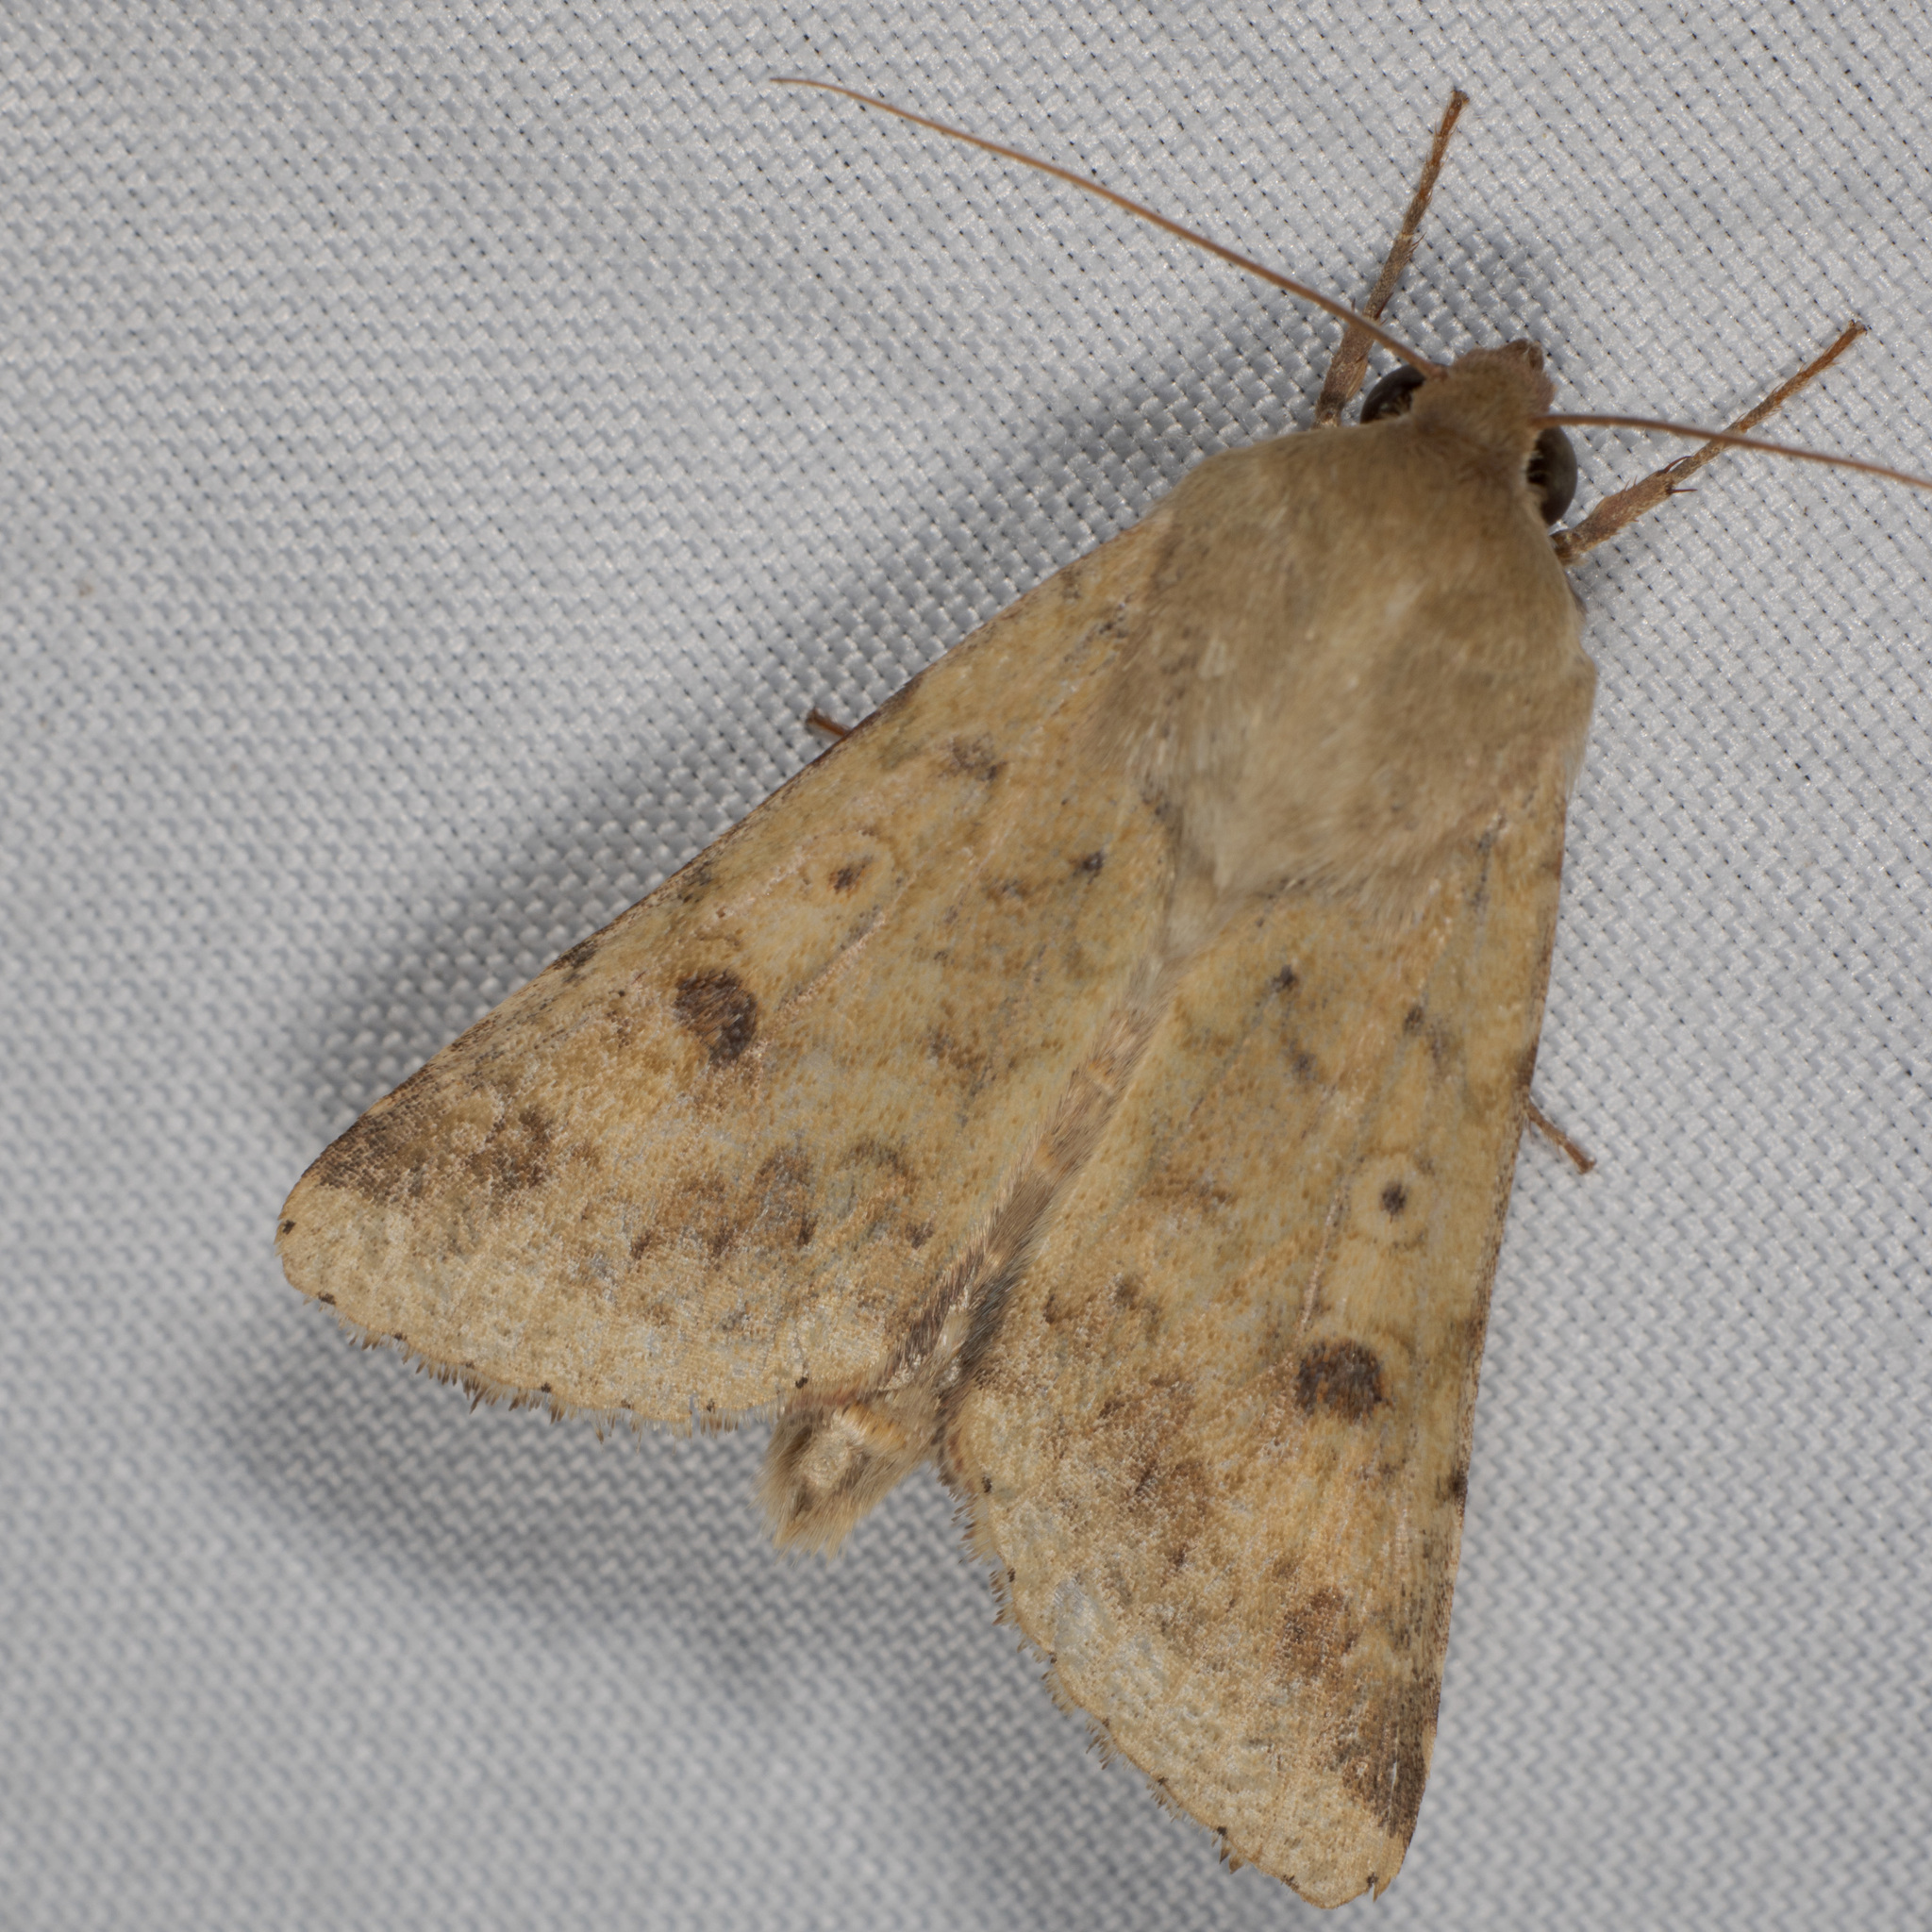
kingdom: Animalia
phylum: Arthropoda
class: Insecta
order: Lepidoptera
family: Noctuidae
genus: Helicoverpa
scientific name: Helicoverpa zea
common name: Bollworm
